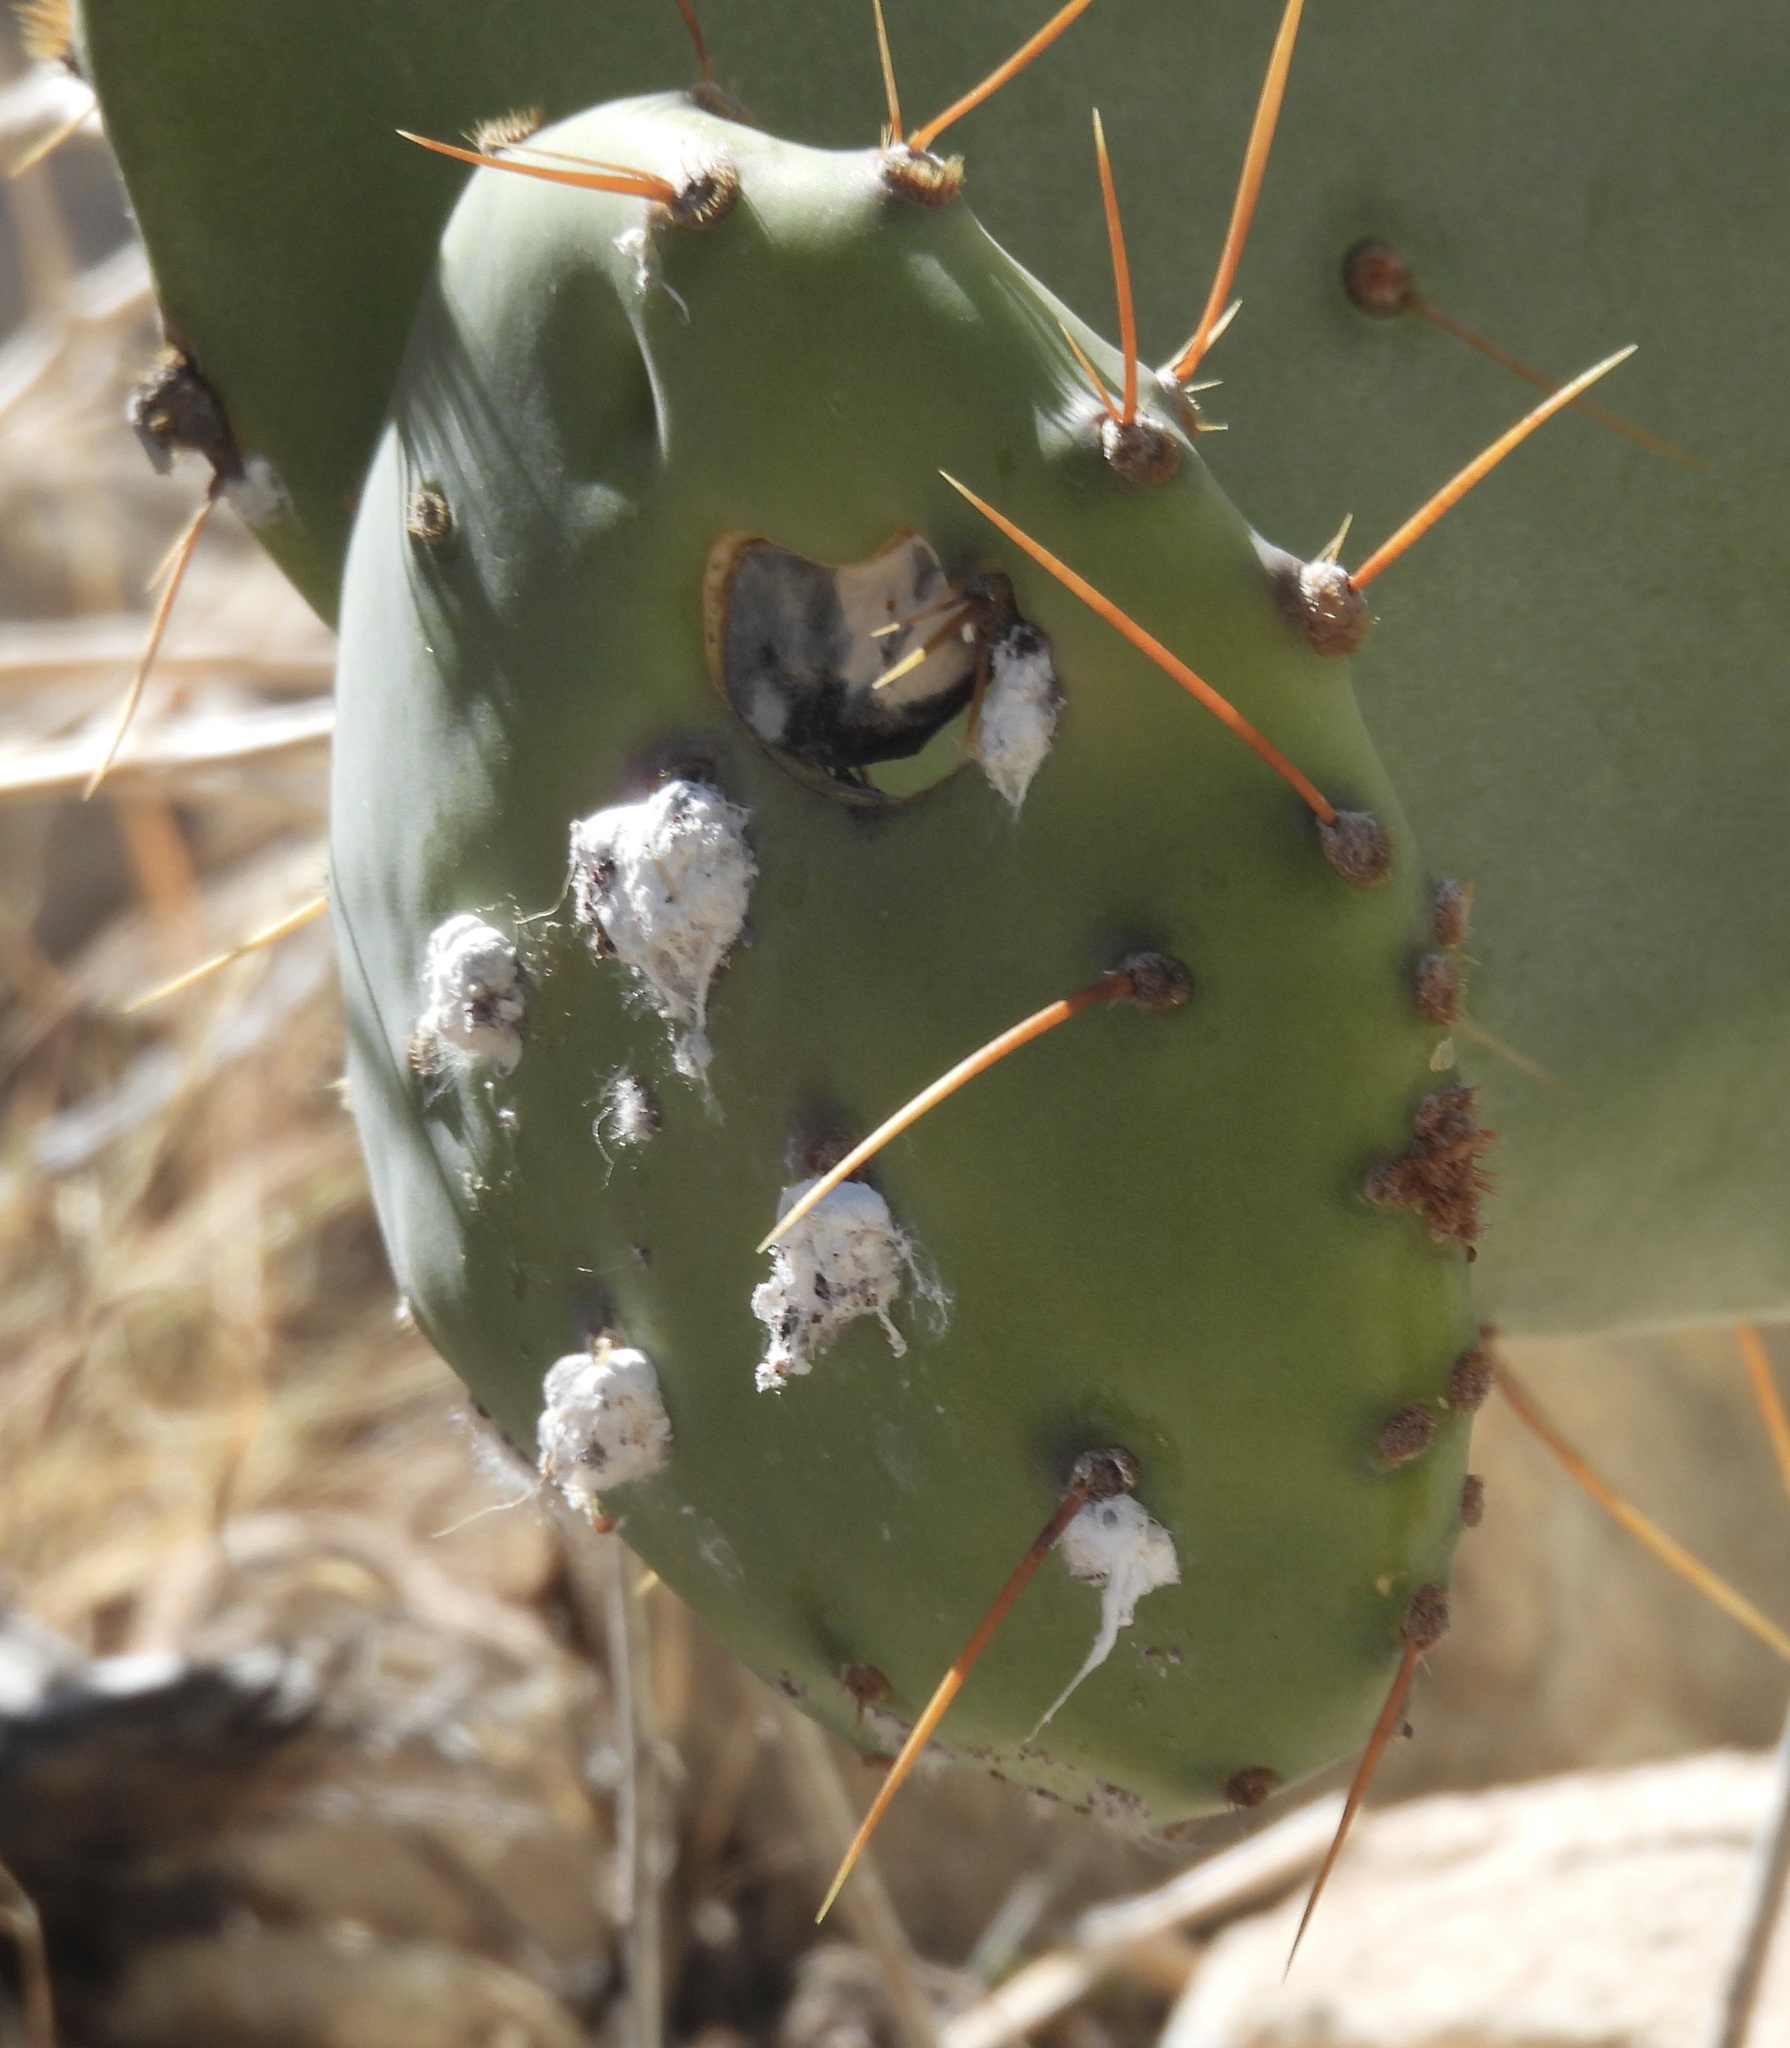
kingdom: Animalia
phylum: Arthropoda
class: Insecta
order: Hemiptera
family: Dactylopiidae
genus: Dactylopius
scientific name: Dactylopius
